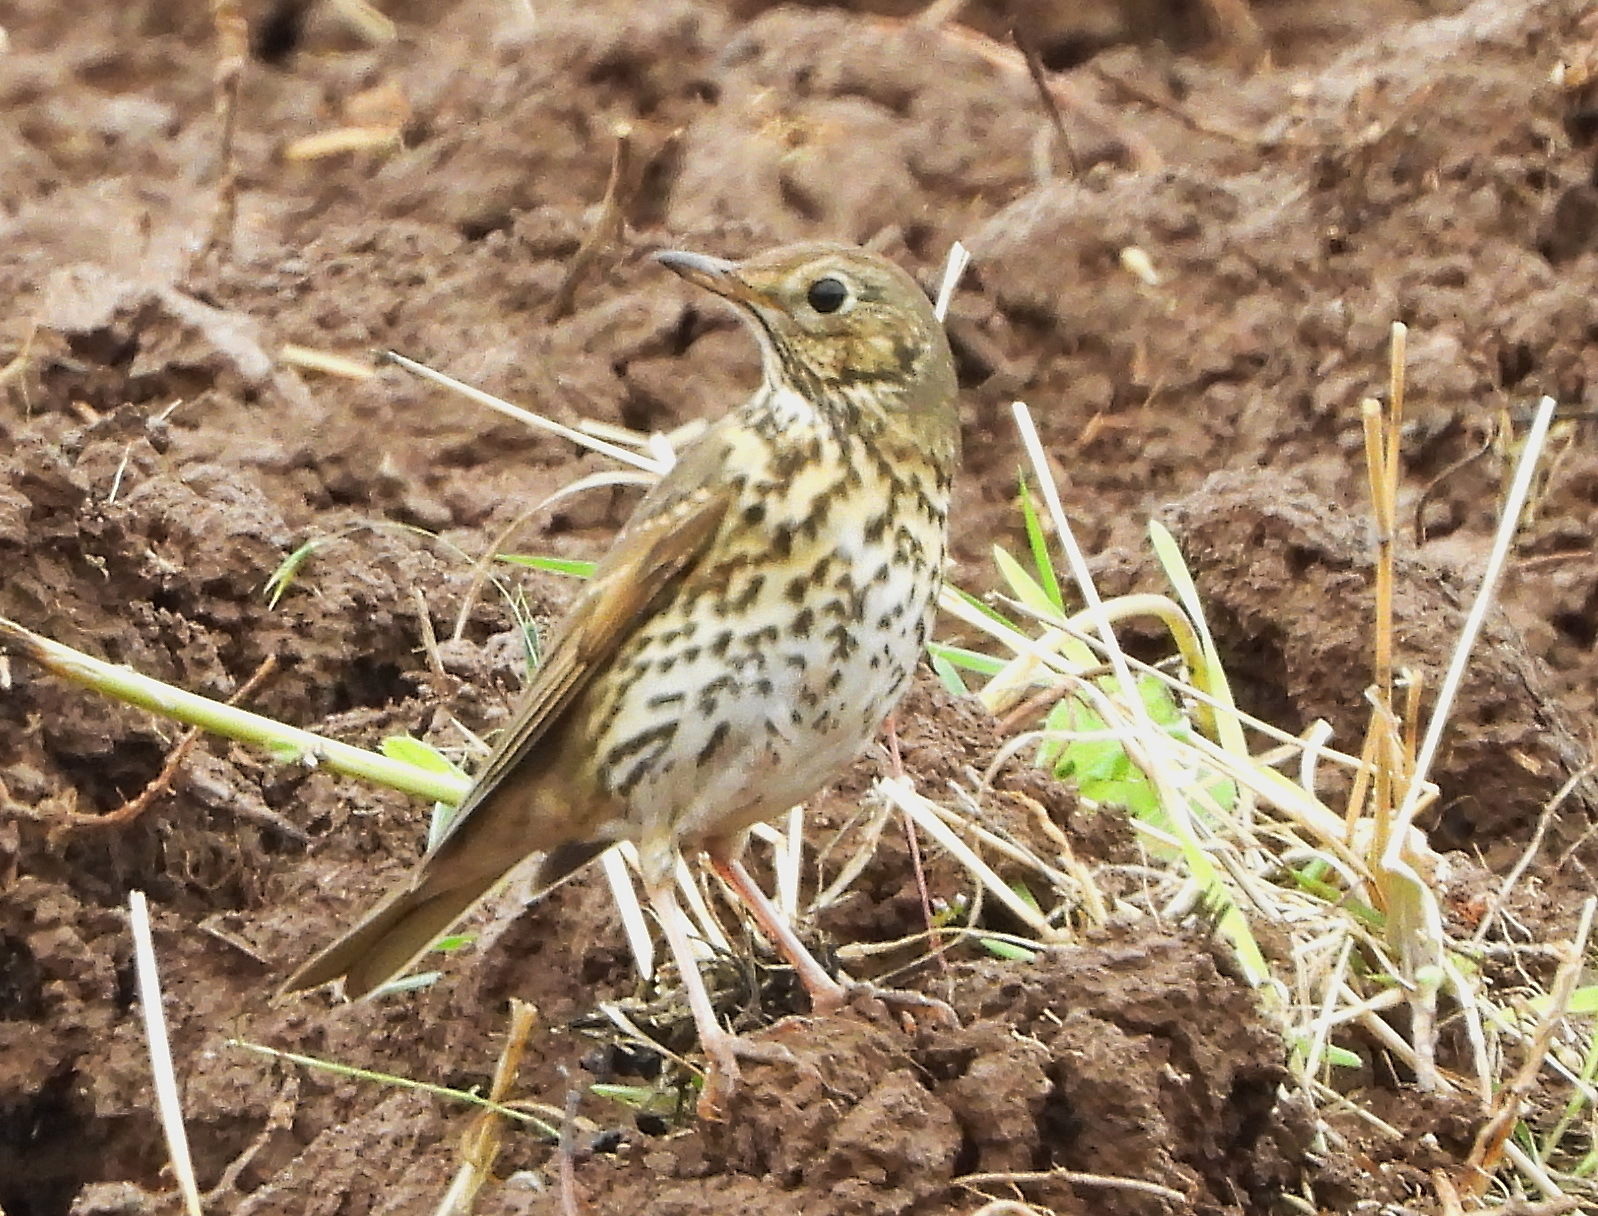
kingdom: Animalia
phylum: Chordata
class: Aves
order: Passeriformes
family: Turdidae
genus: Turdus
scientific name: Turdus philomelos
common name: Song thrush
